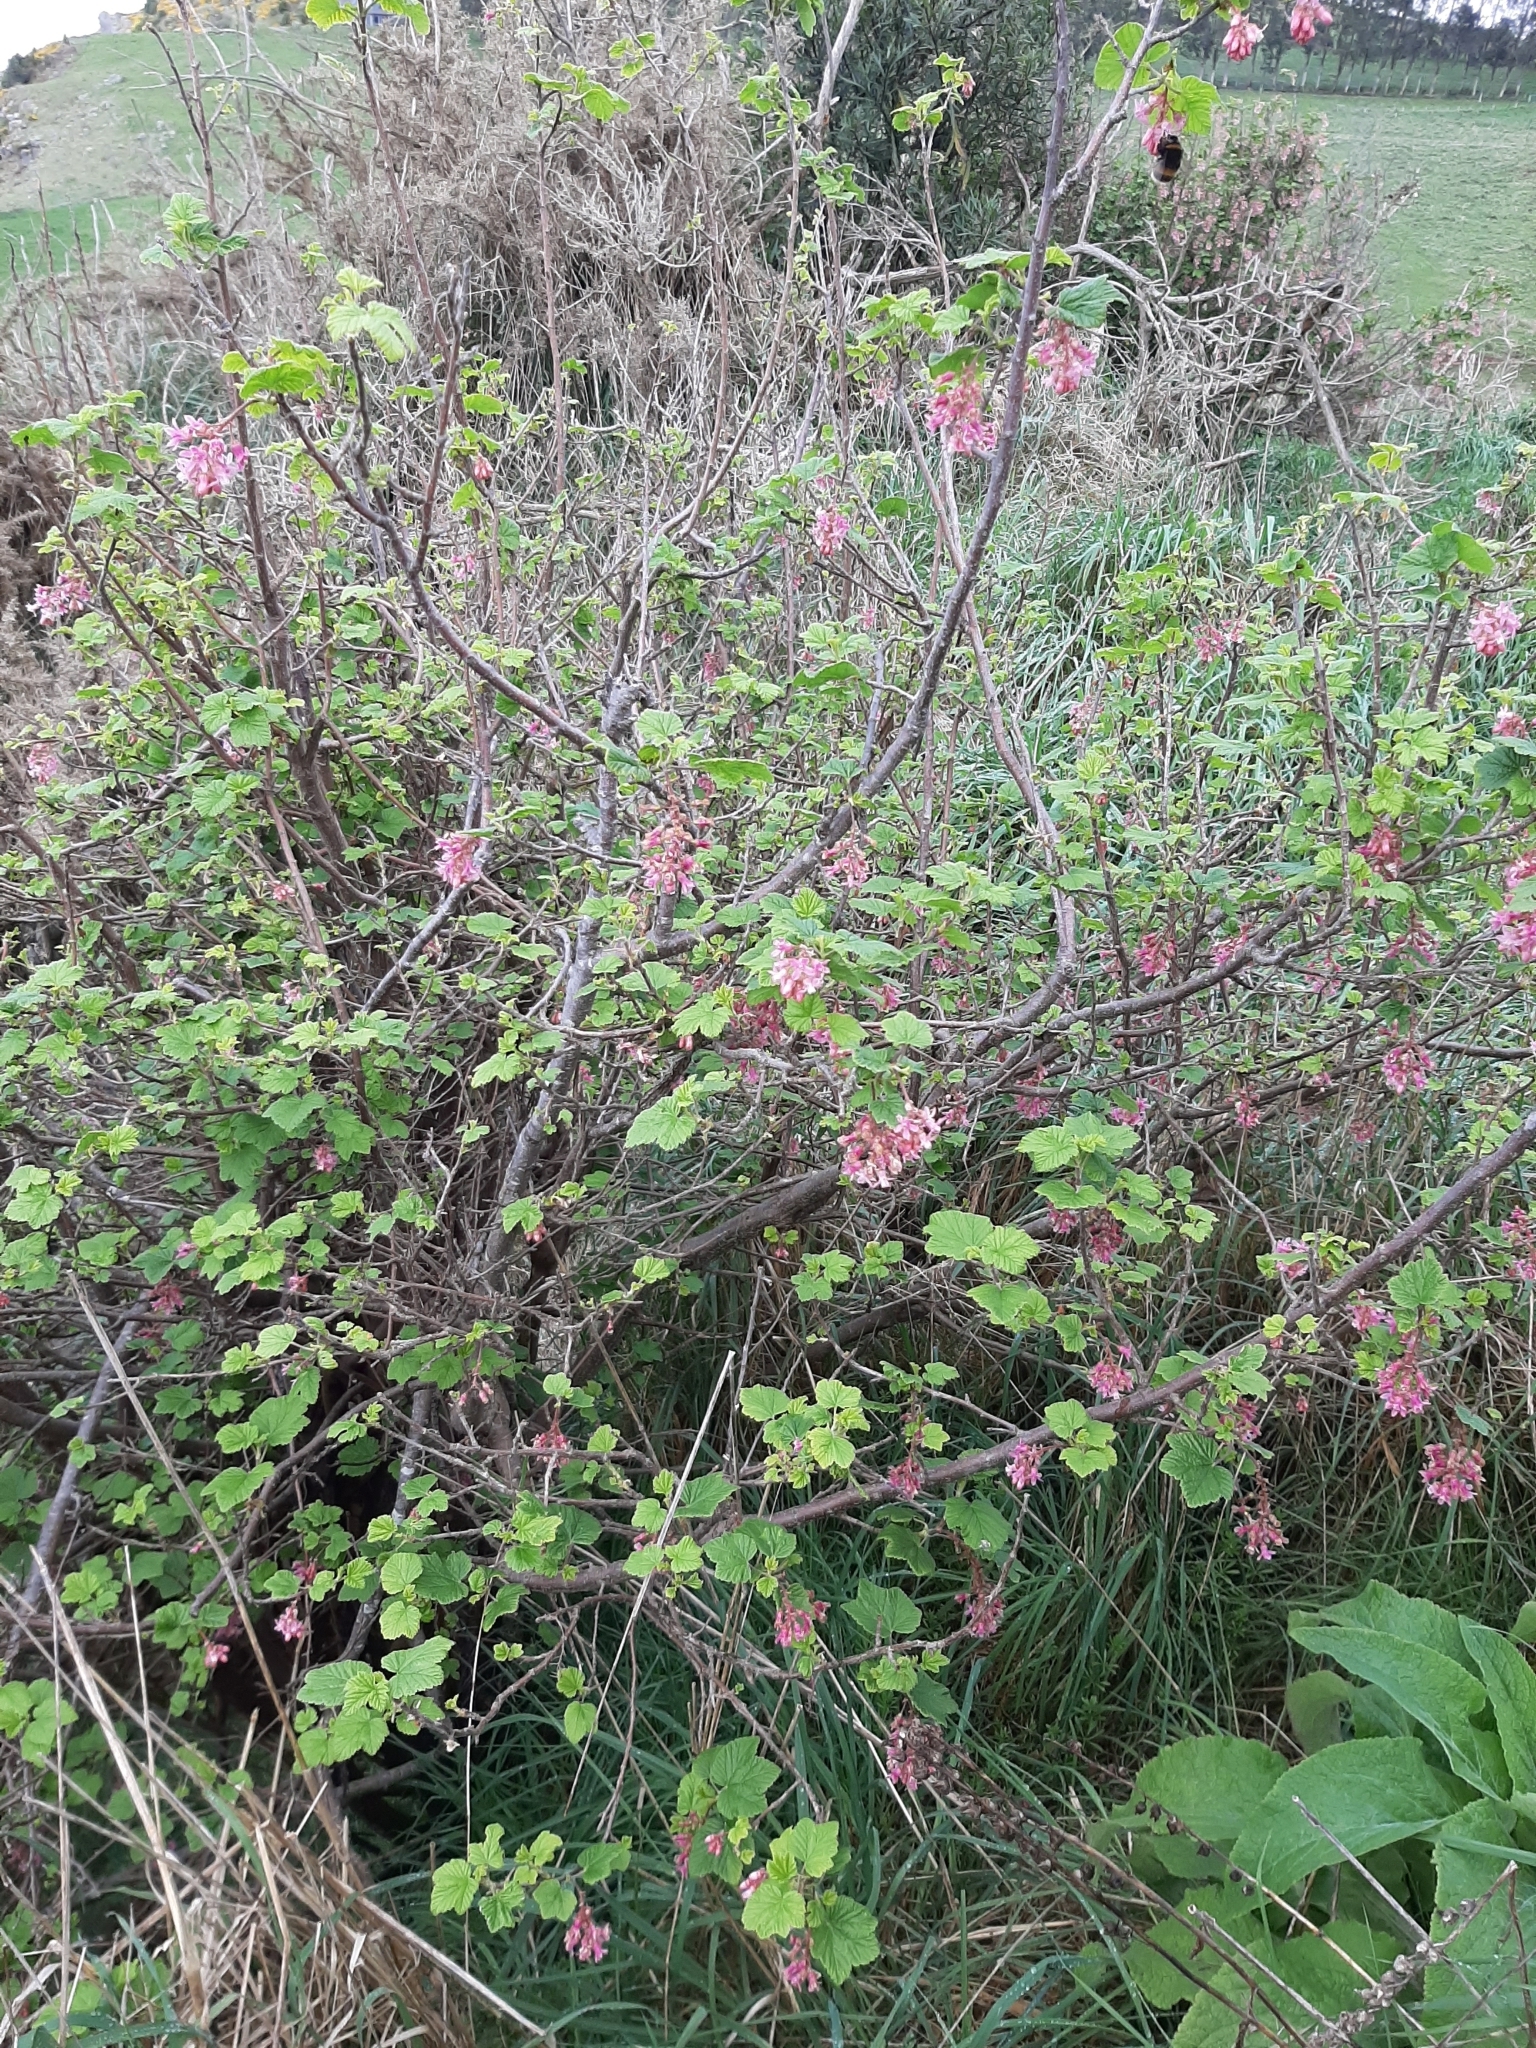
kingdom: Plantae
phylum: Tracheophyta
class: Magnoliopsida
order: Saxifragales
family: Grossulariaceae
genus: Ribes
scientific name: Ribes sanguineum
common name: Flowering currant
